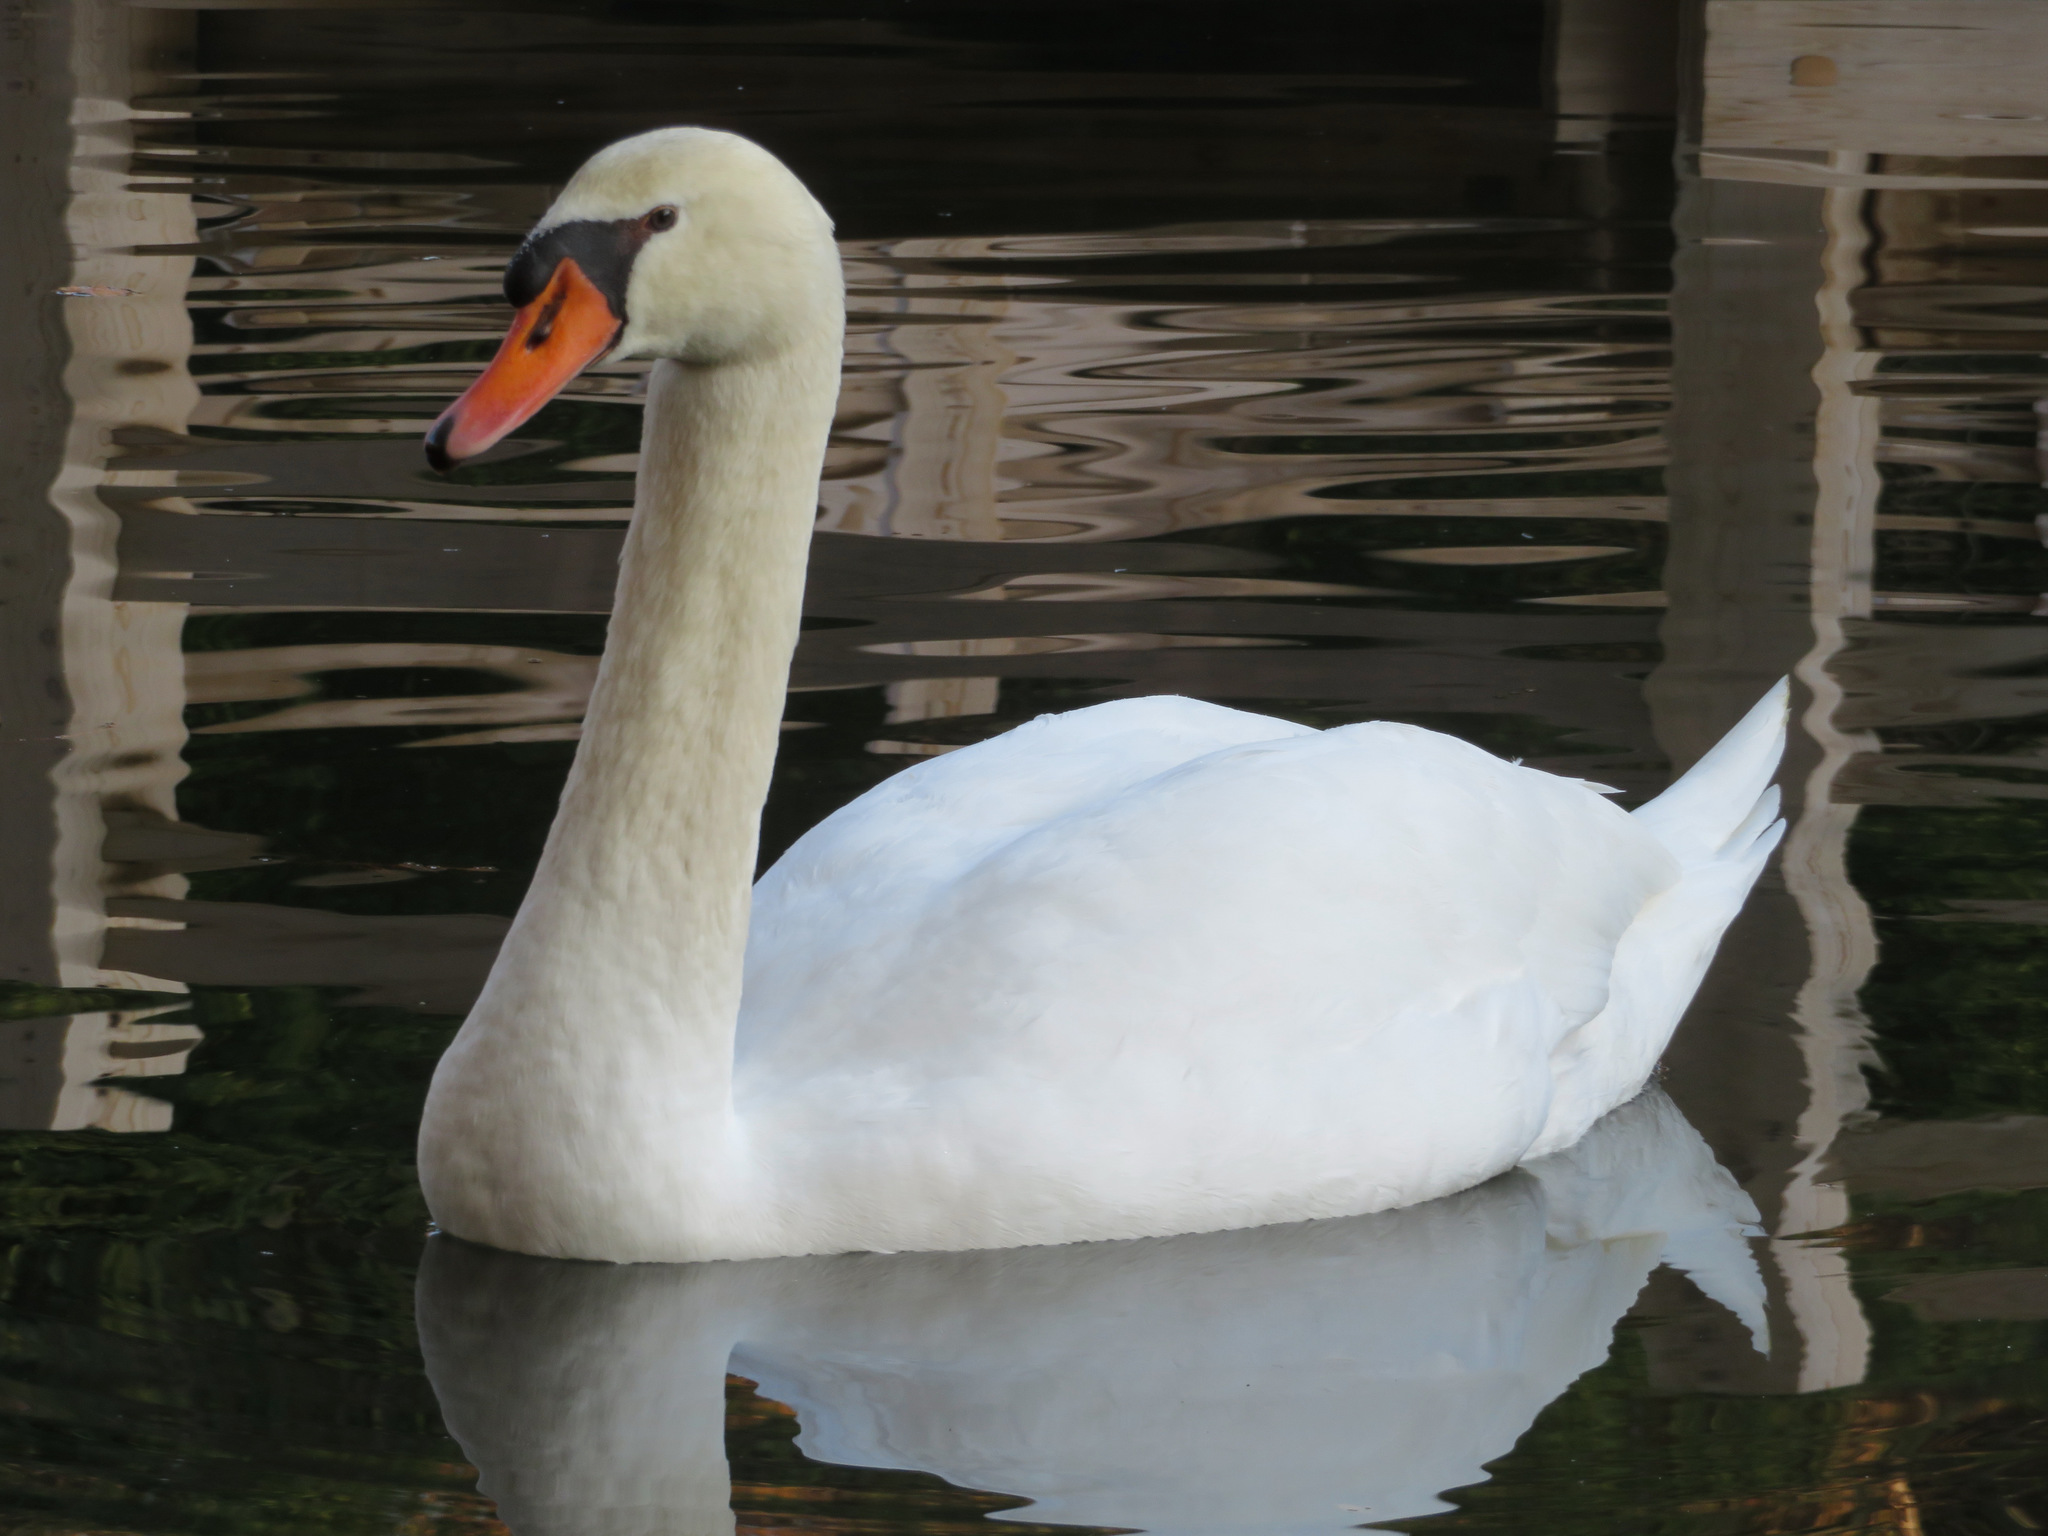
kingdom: Animalia
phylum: Chordata
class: Aves
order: Anseriformes
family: Anatidae
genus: Cygnus
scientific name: Cygnus olor
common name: Mute swan
